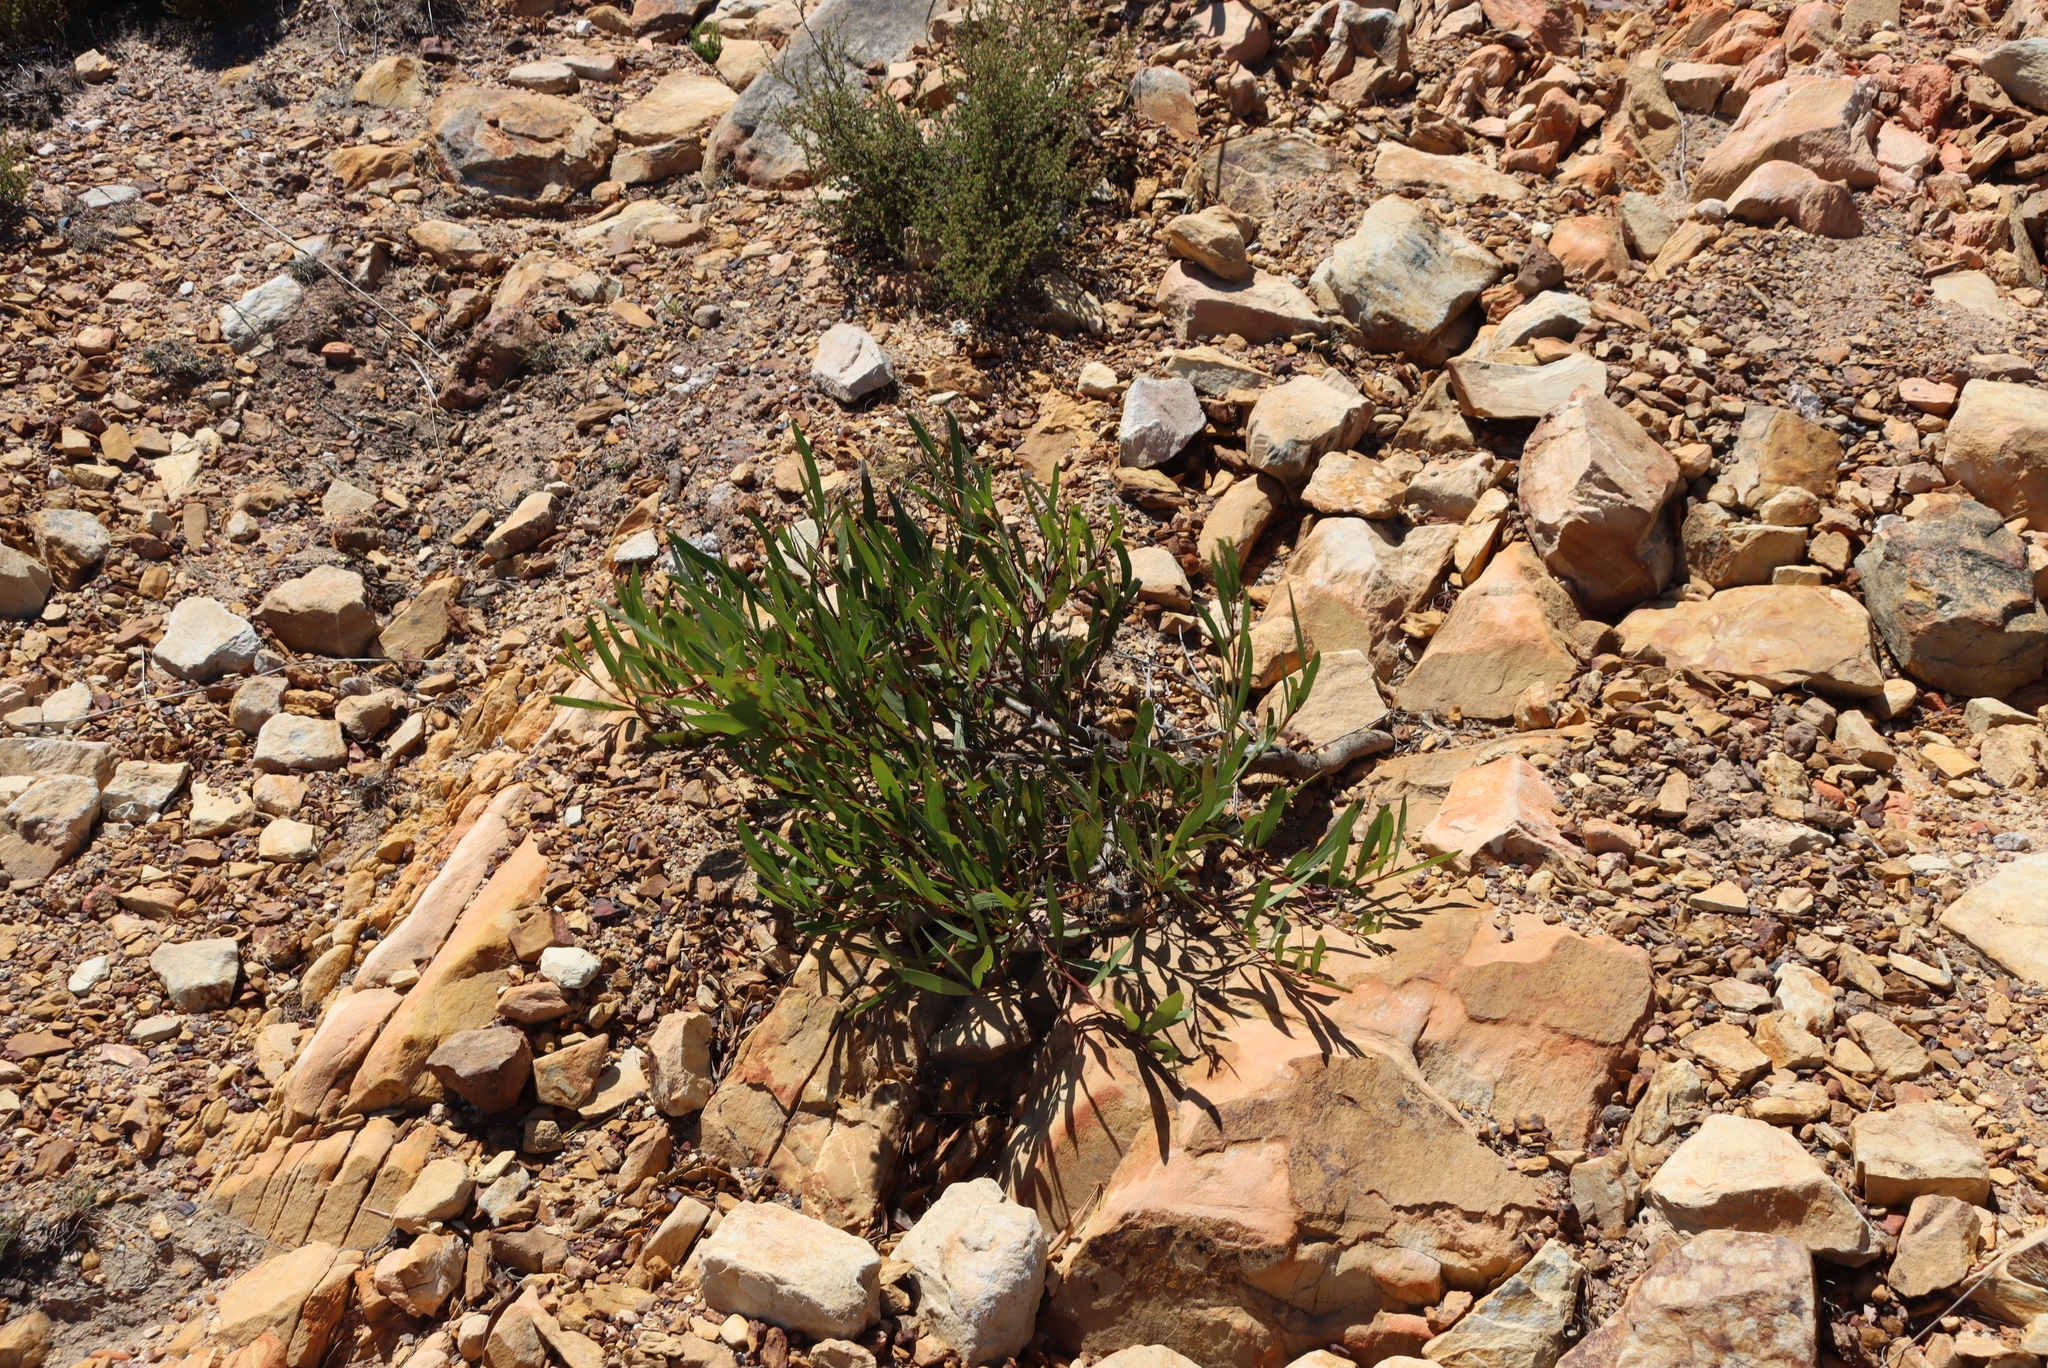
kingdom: Plantae
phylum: Tracheophyta
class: Magnoliopsida
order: Fabales
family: Fabaceae
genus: Acacia
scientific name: Acacia longifolia
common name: Sydney golden wattle
